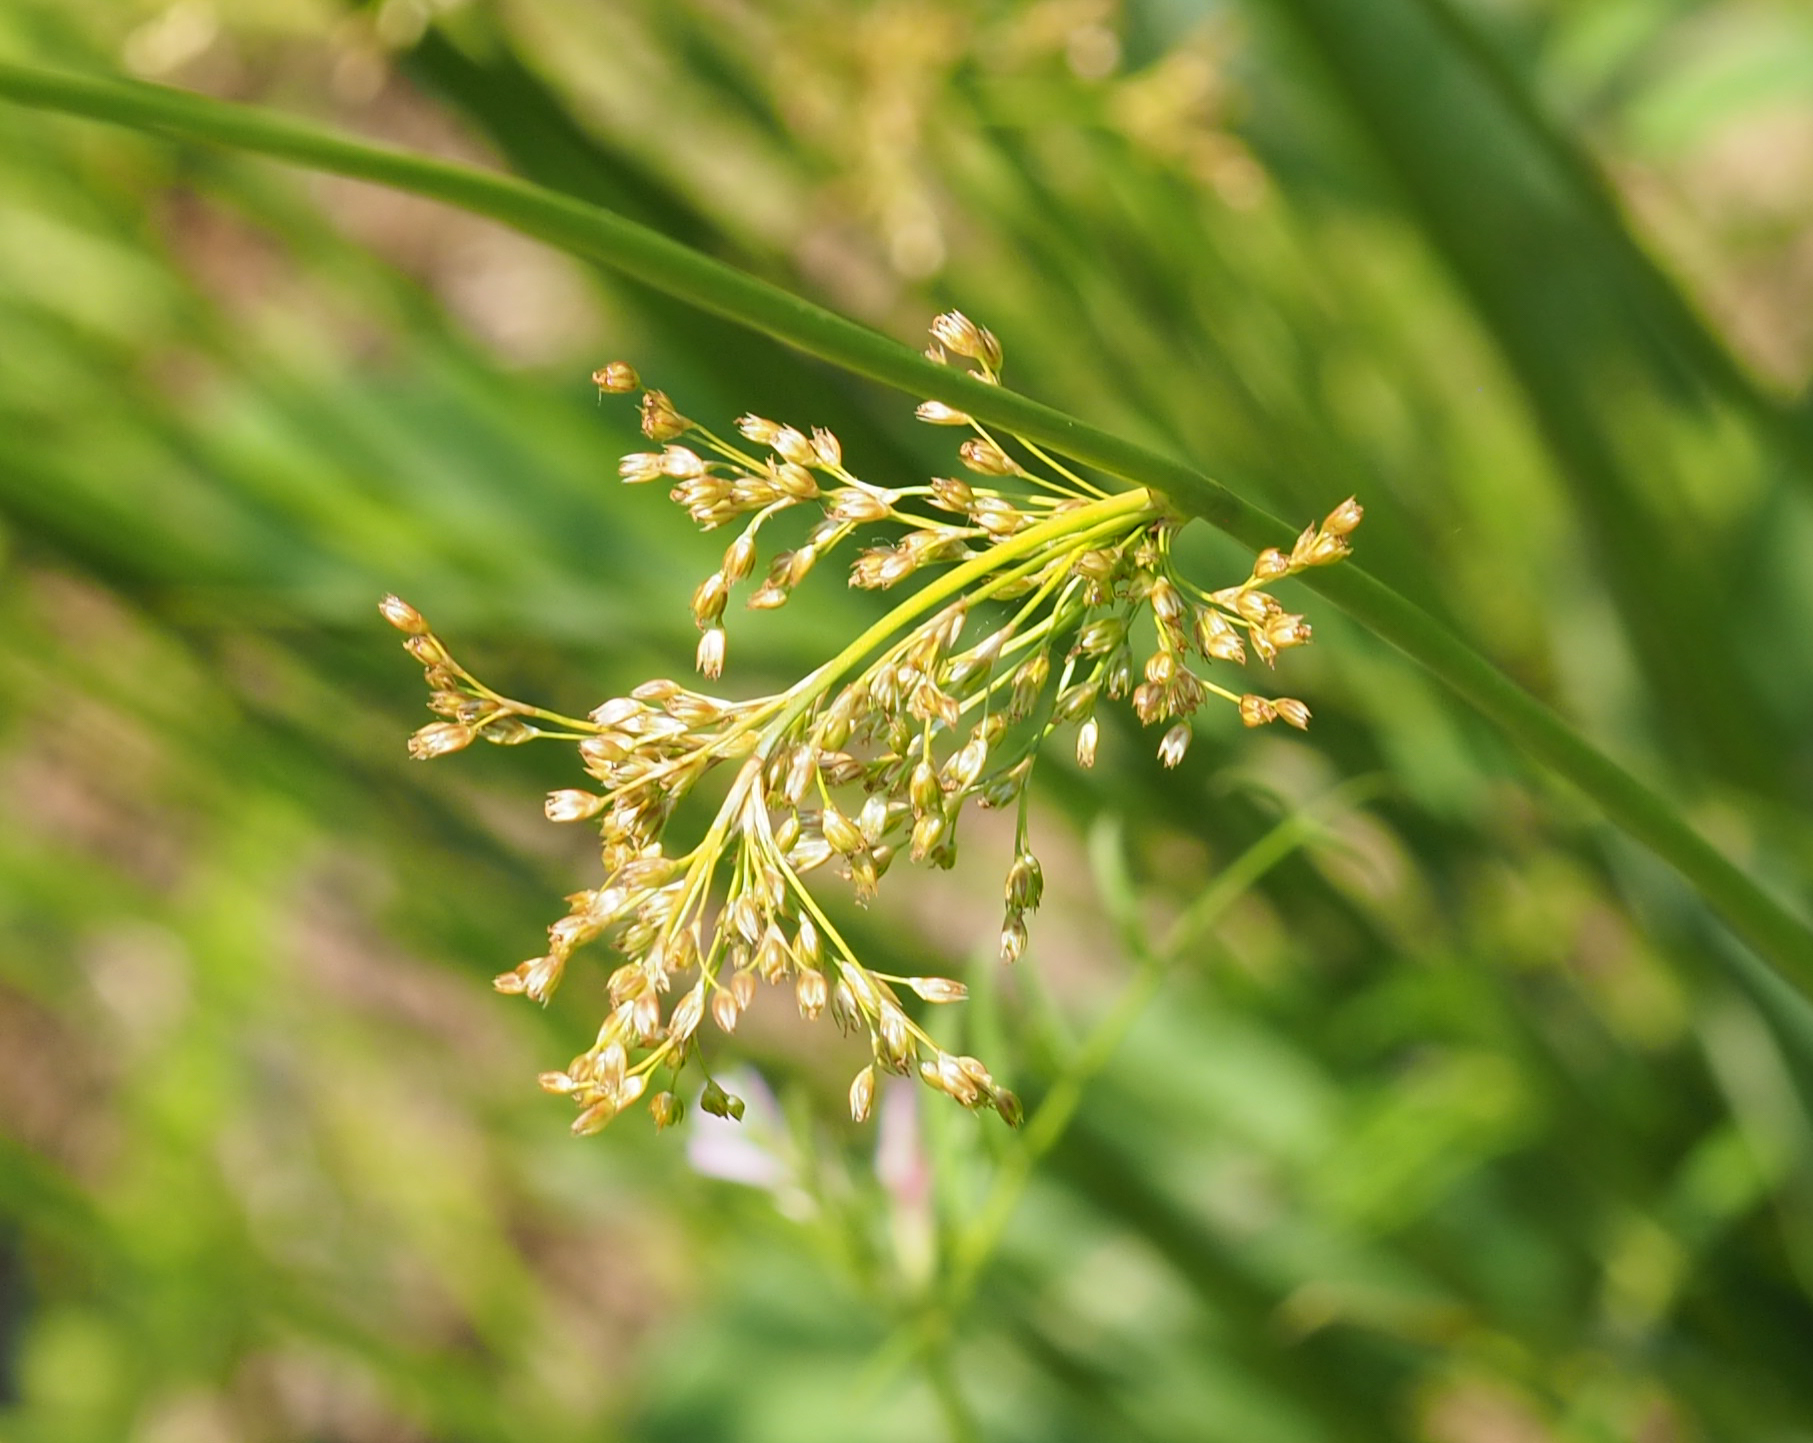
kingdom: Plantae
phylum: Tracheophyta
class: Liliopsida
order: Poales
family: Juncaceae
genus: Juncus
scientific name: Juncus effusus
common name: Soft rush
